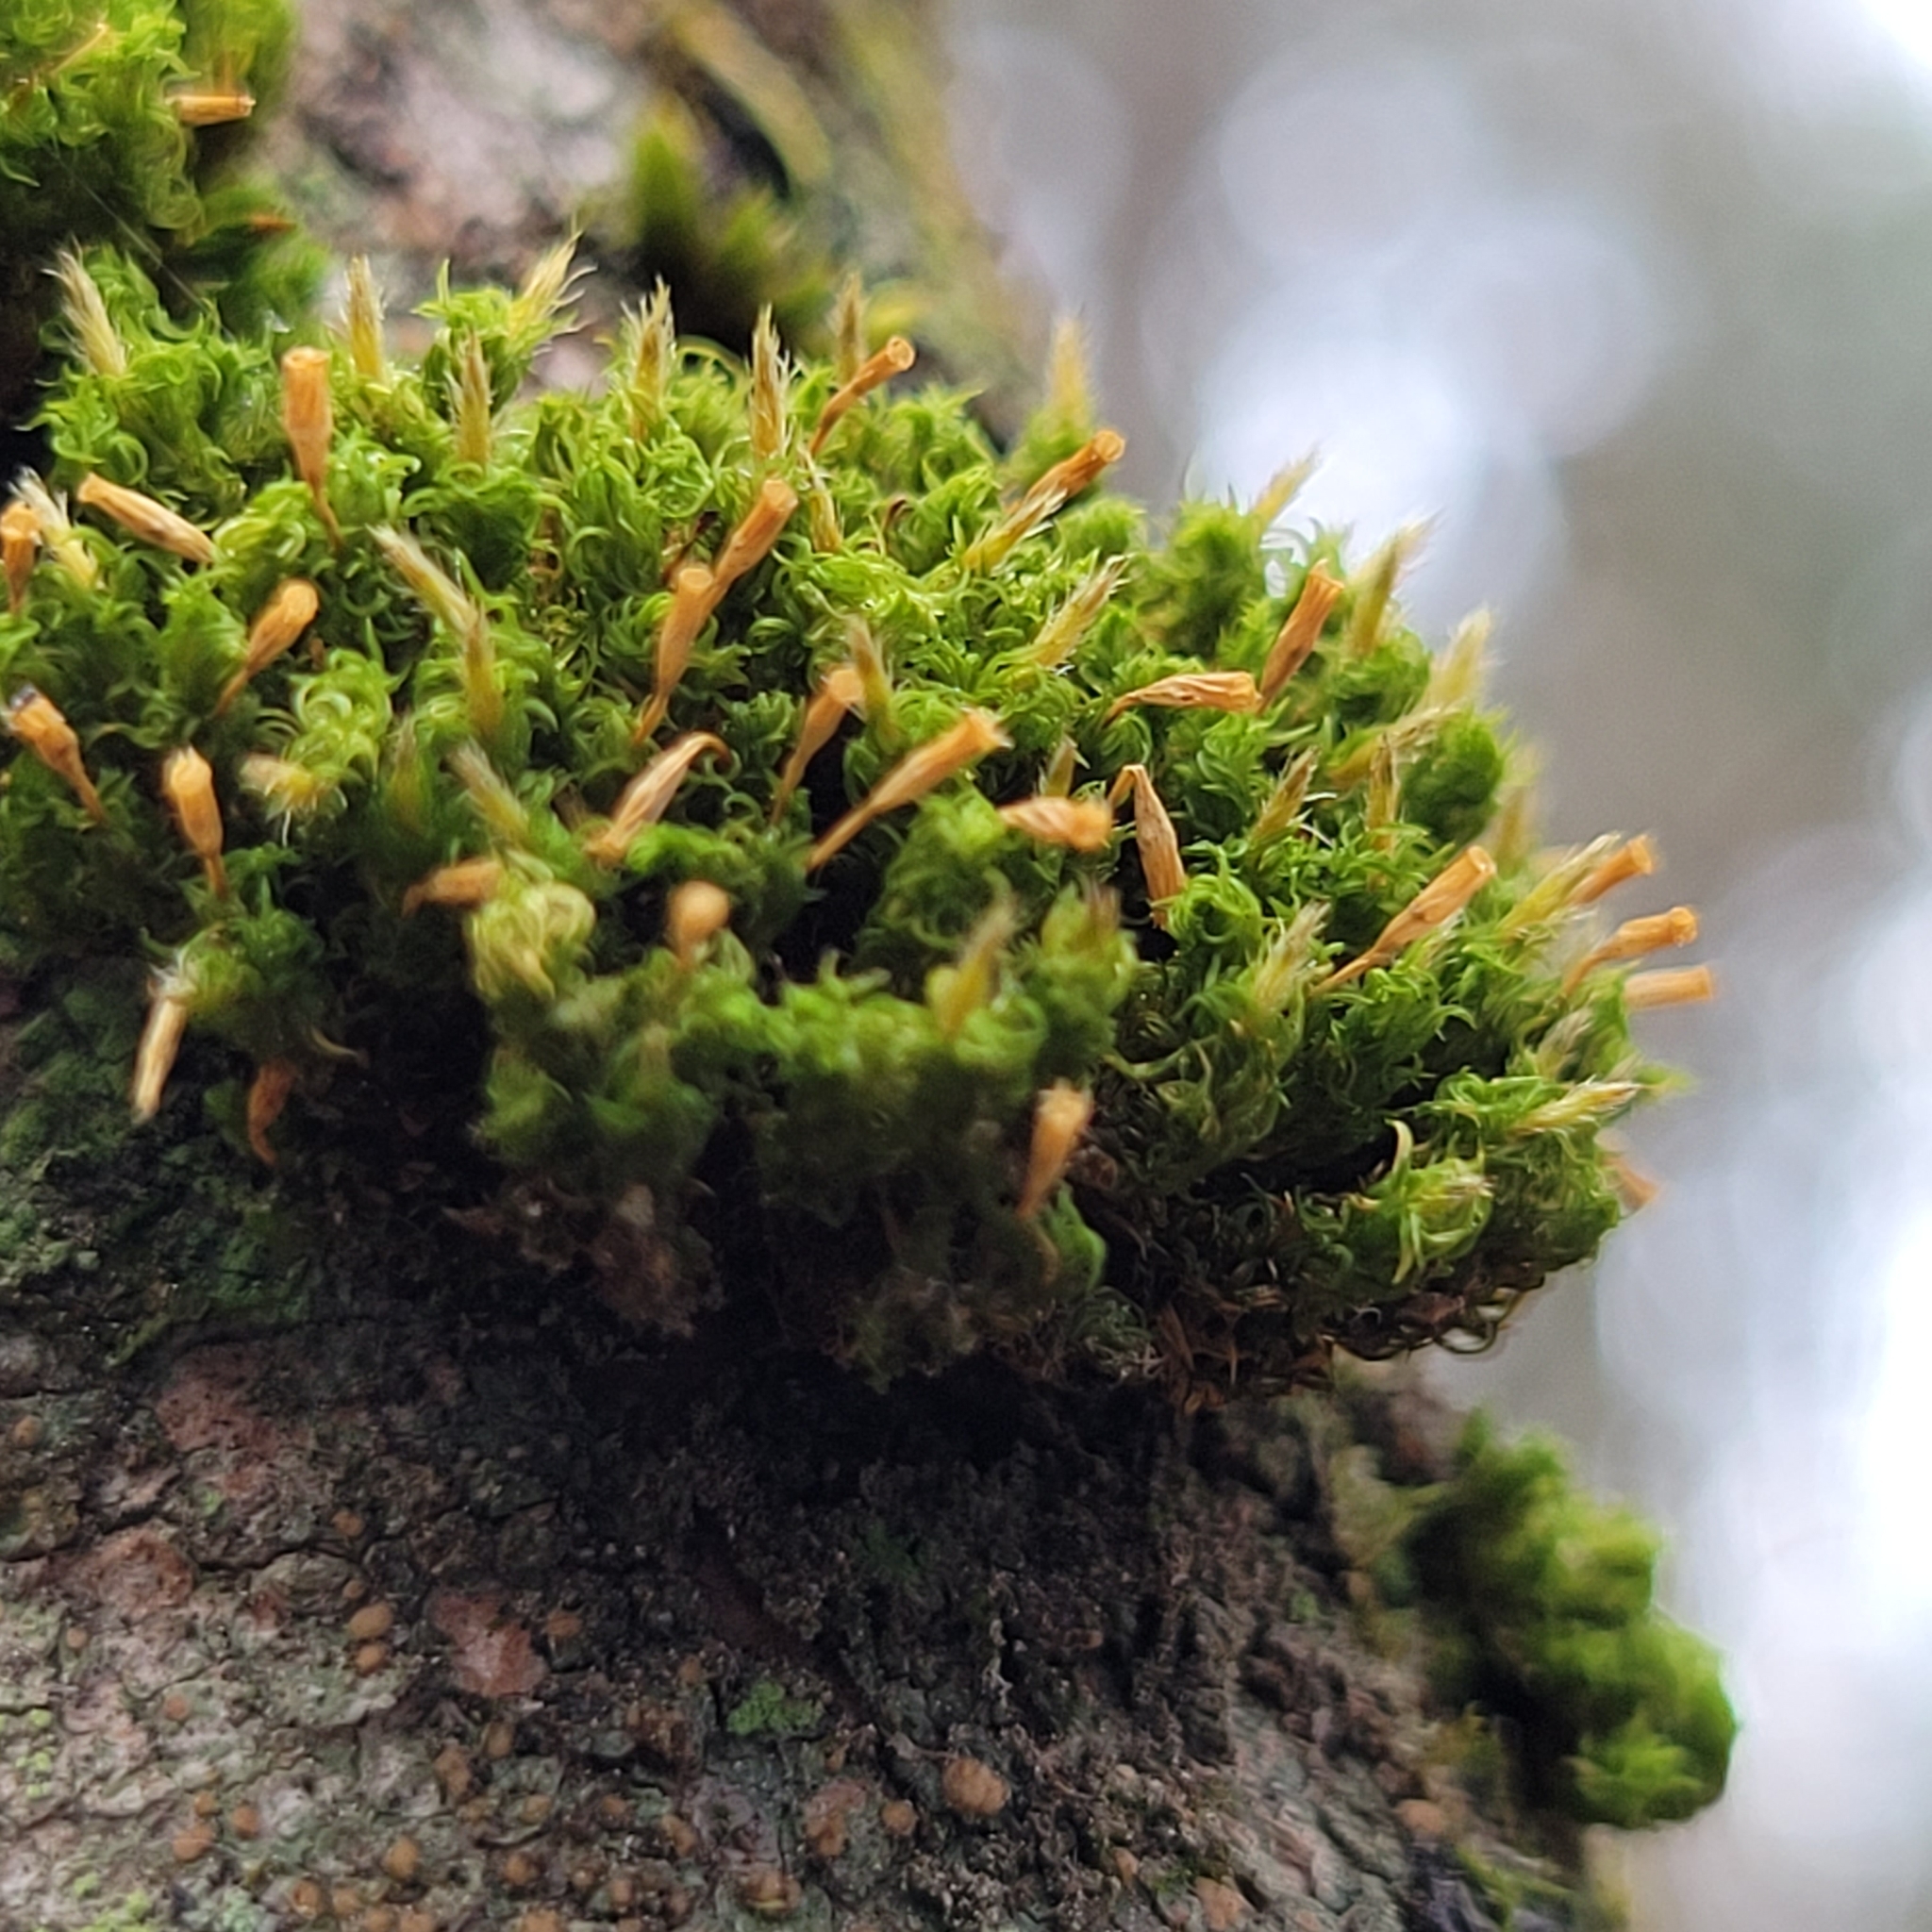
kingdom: Plantae
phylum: Bryophyta
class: Bryopsida
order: Orthotrichales
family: Orthotrichaceae
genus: Ulota
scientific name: Ulota crispa
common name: Crisped pincushion moss
